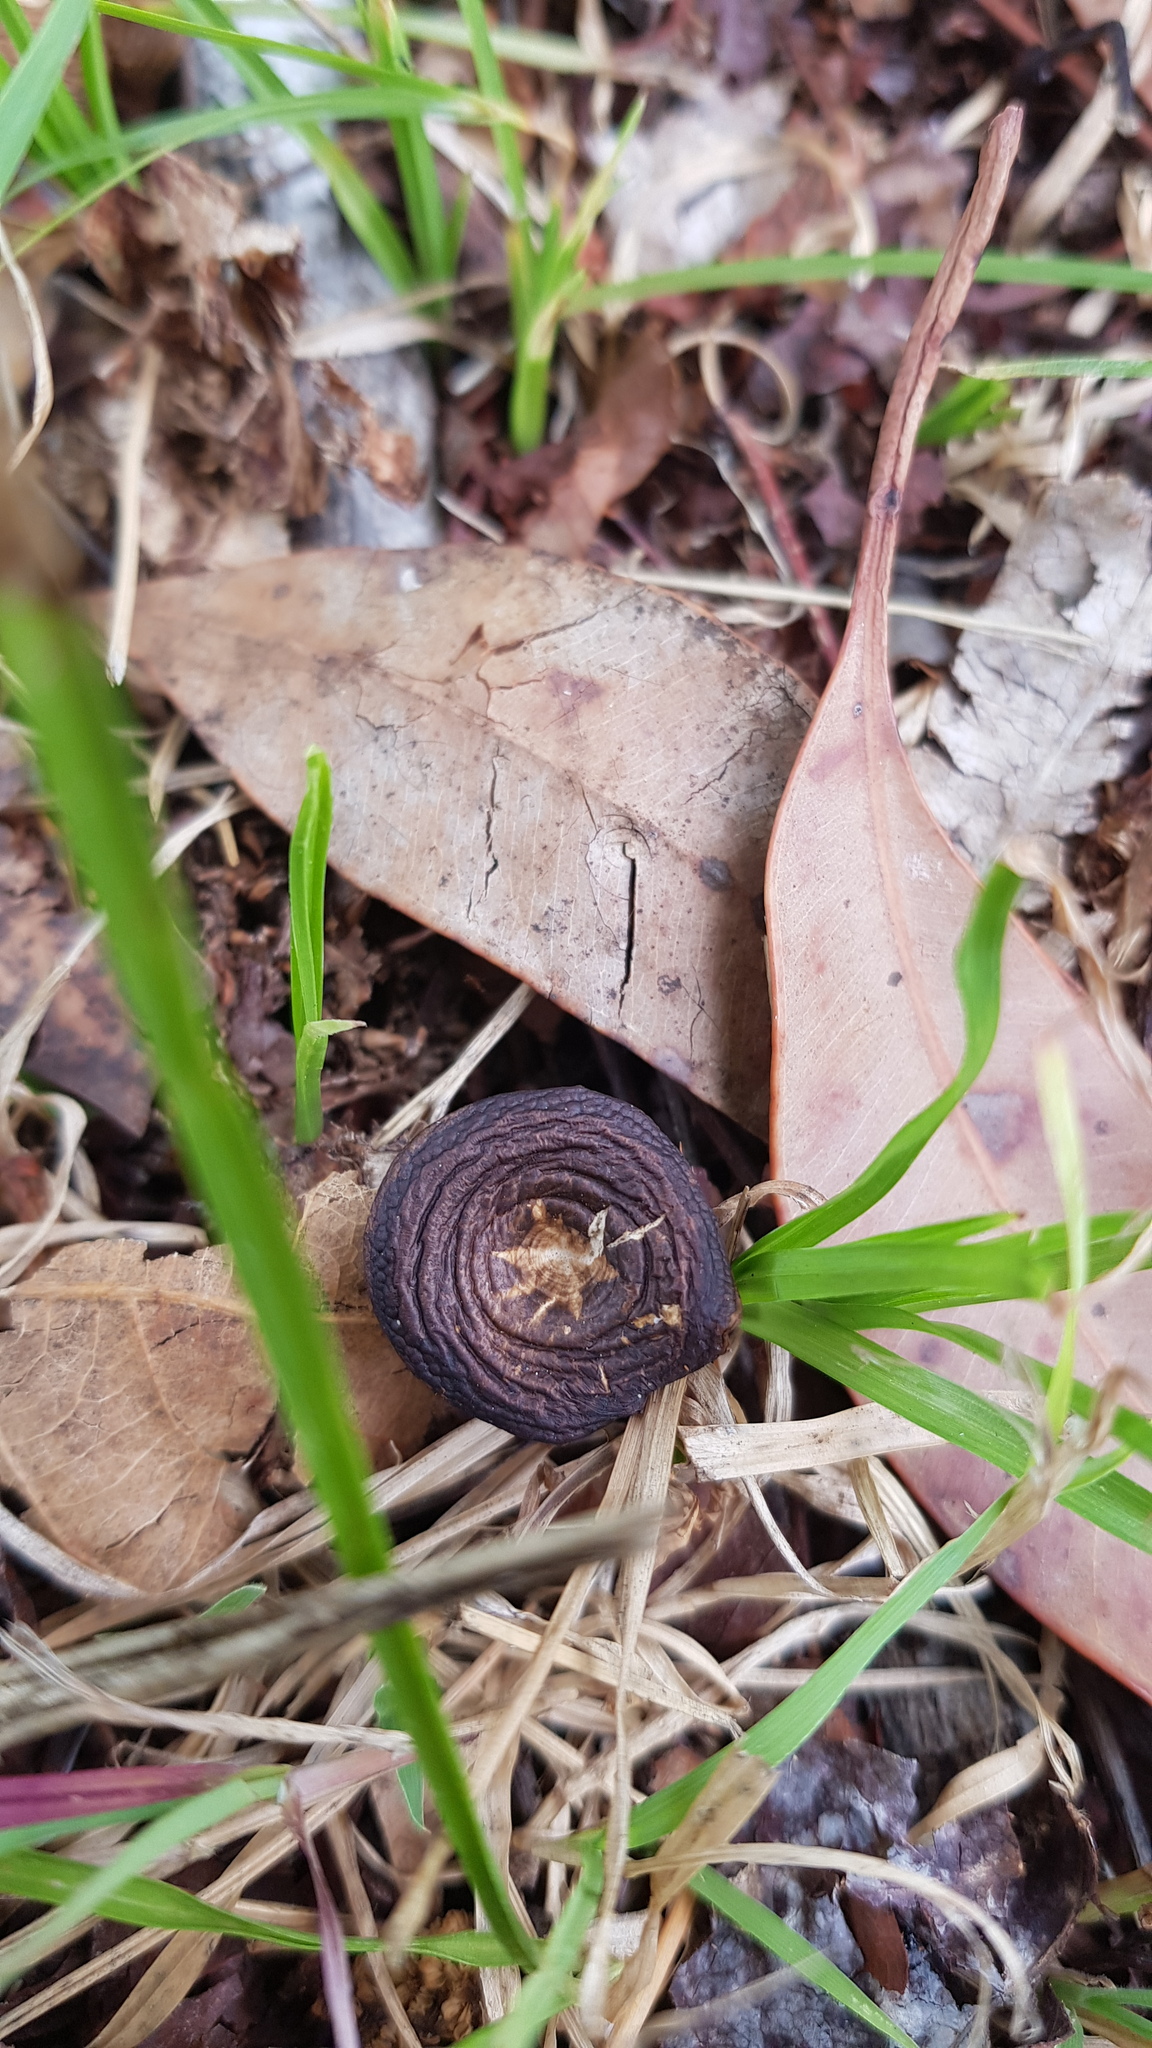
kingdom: Fungi
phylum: Basidiomycota
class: Agaricomycetes
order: Polyporales
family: Polyporaceae
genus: Lentinus
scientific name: Lentinus arcularius
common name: Spring polypore
